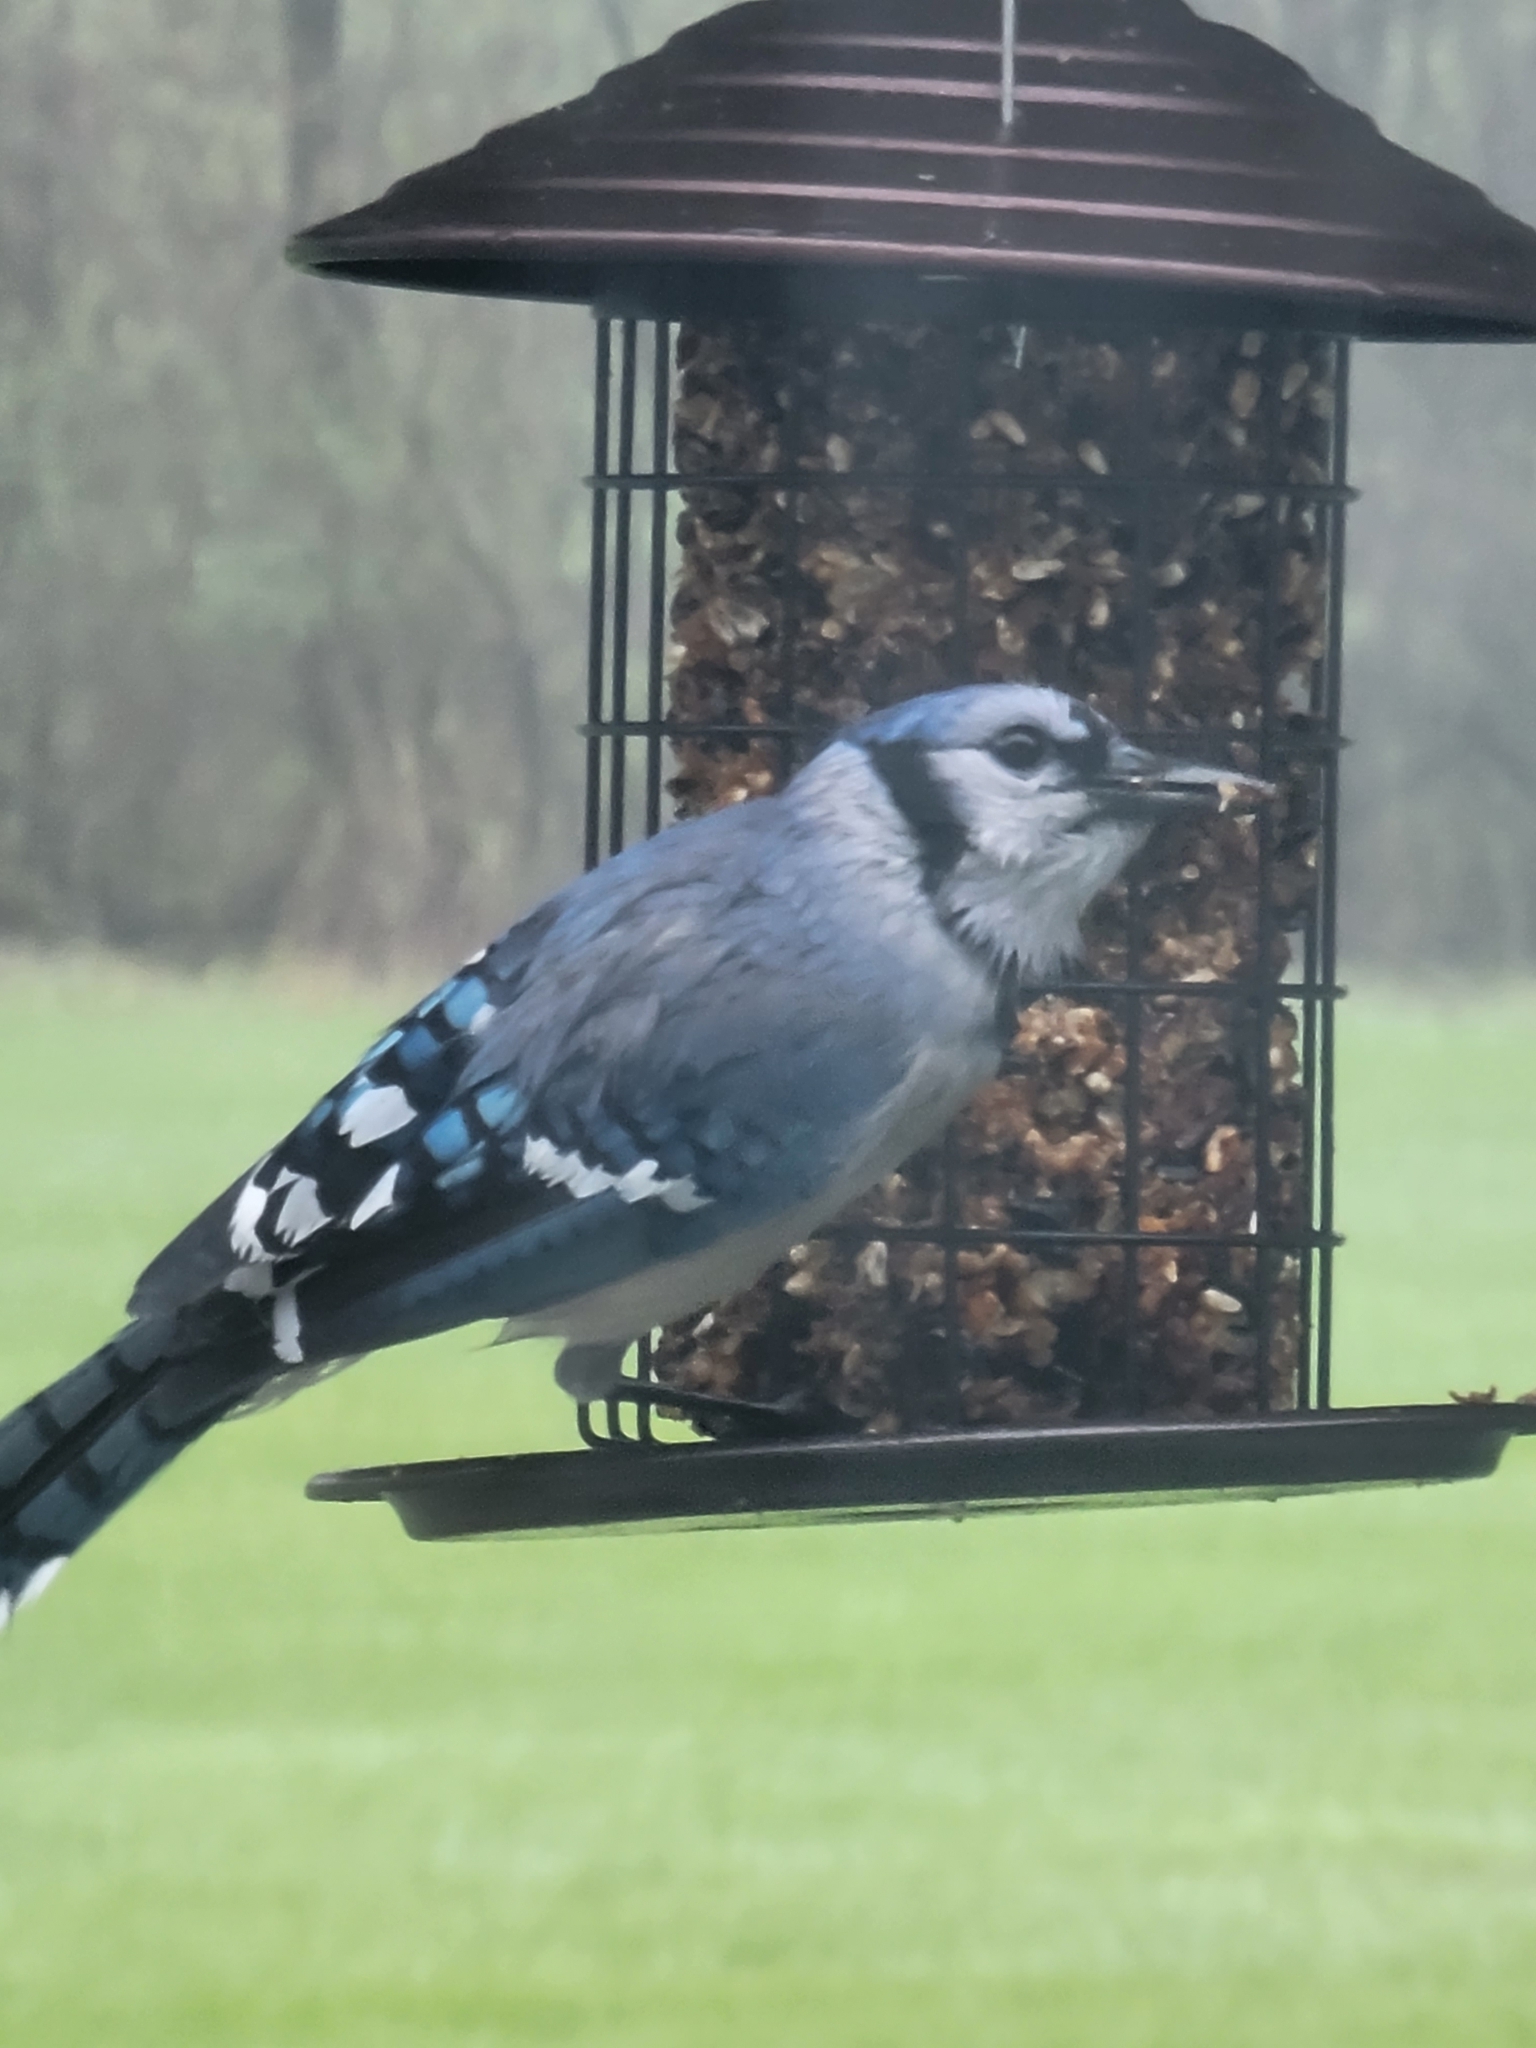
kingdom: Animalia
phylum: Chordata
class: Aves
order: Passeriformes
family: Corvidae
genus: Cyanocitta
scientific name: Cyanocitta cristata
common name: Blue jay
